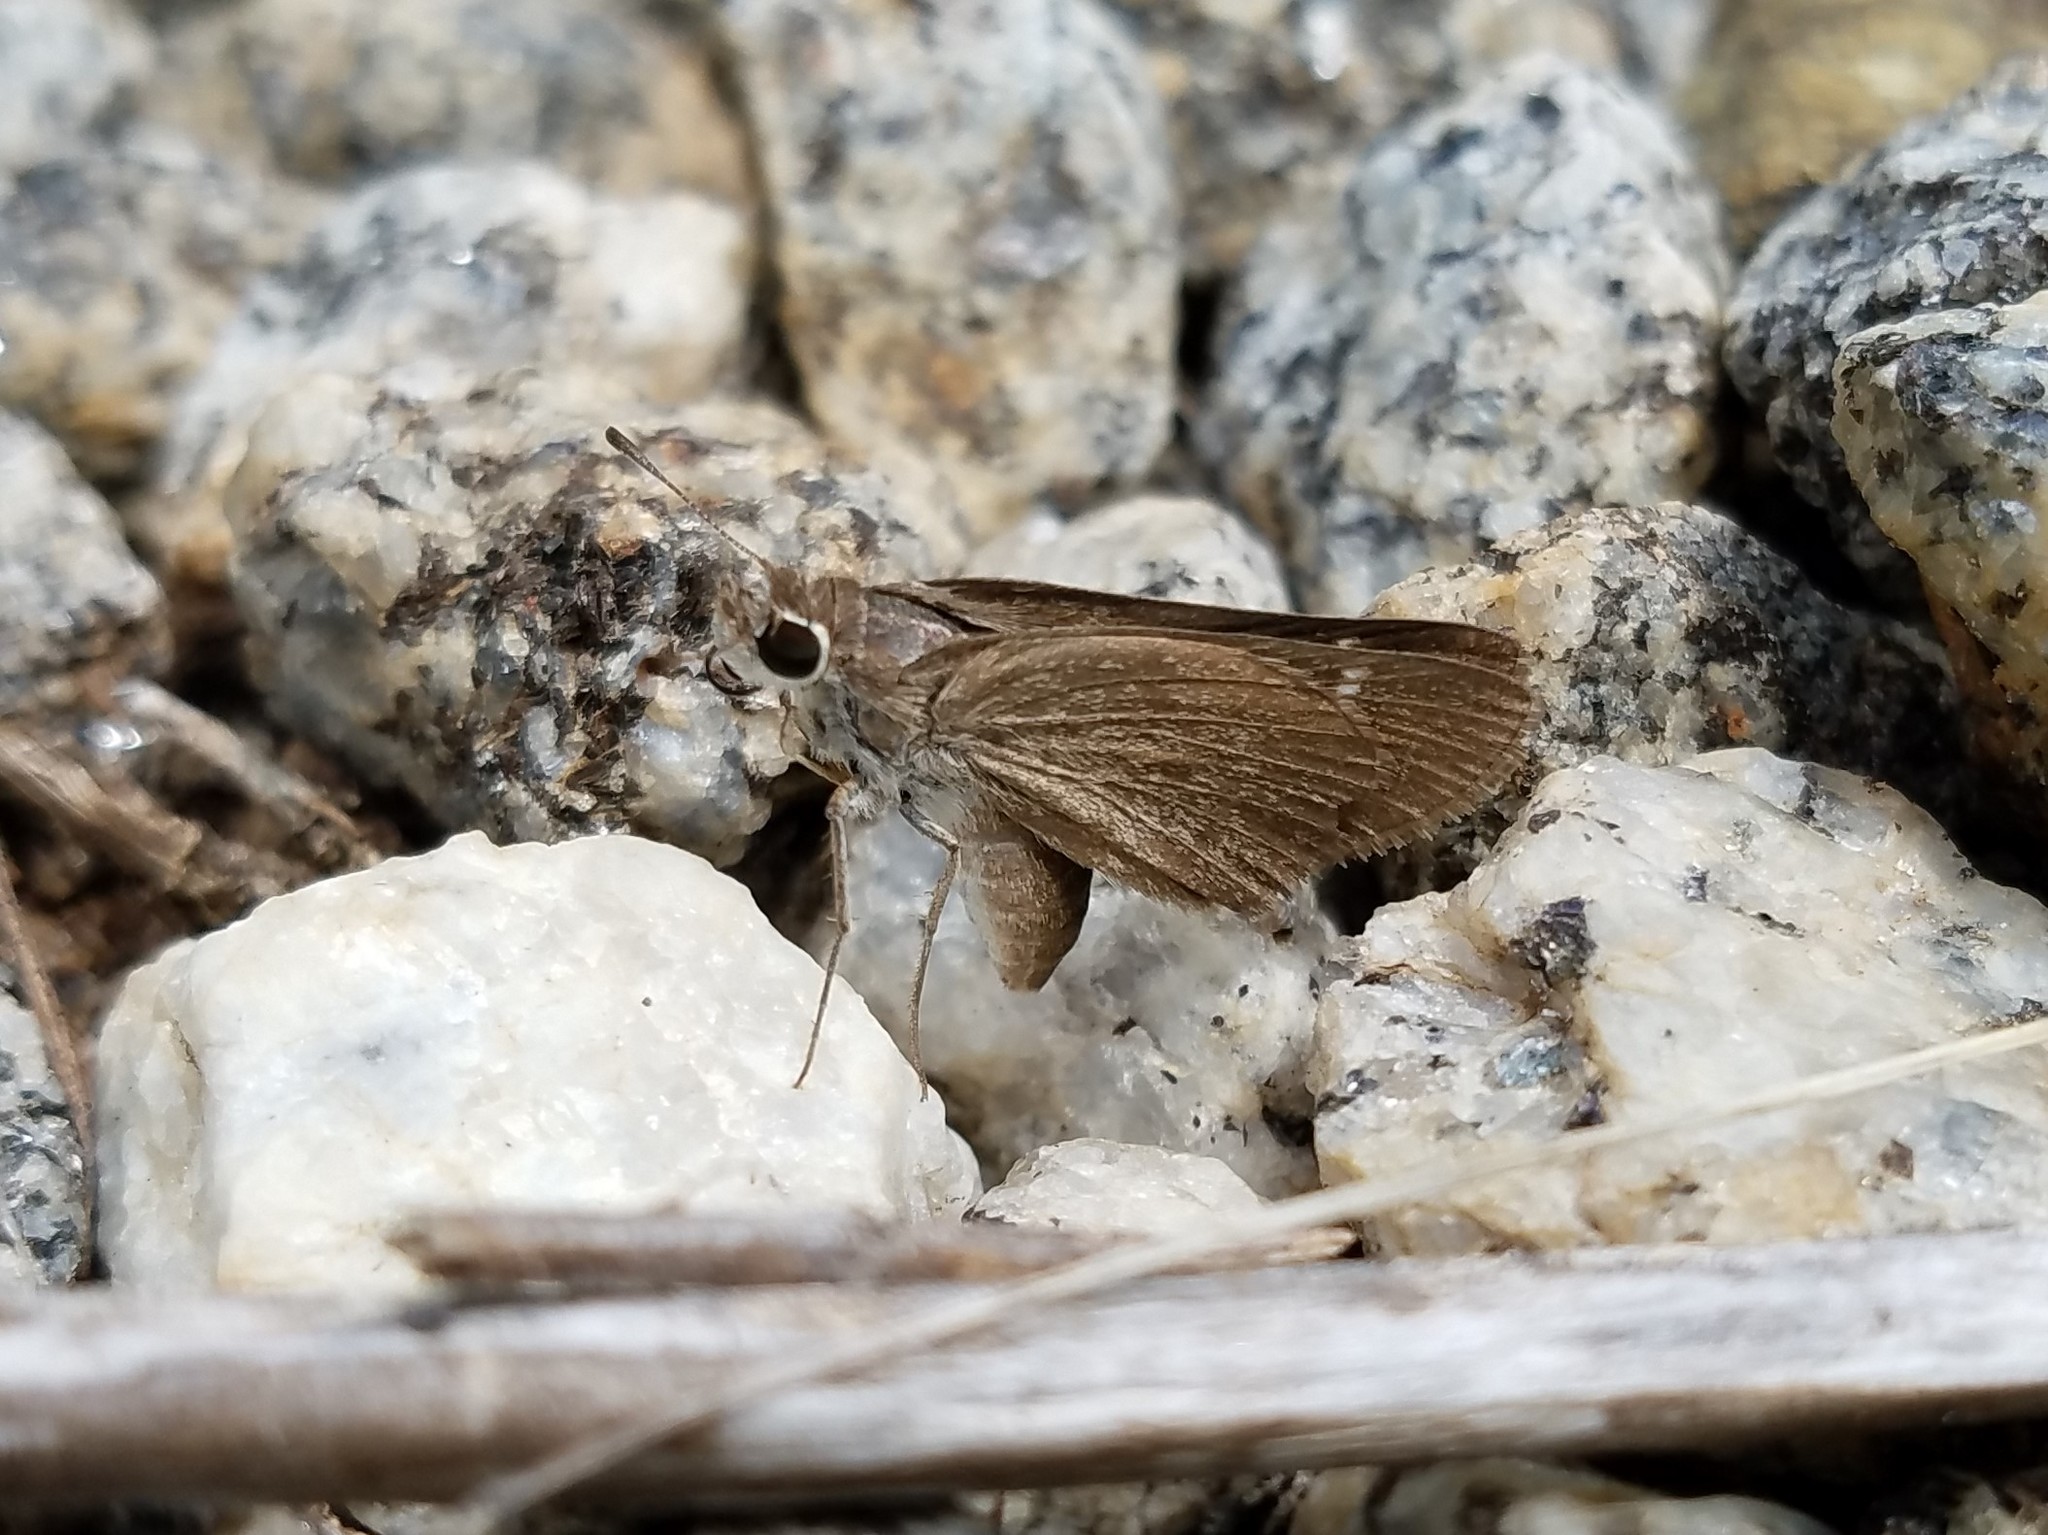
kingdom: Animalia
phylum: Arthropoda
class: Insecta
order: Lepidoptera
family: Hesperiidae
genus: Lerodea
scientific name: Lerodea eufala
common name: Eufala skipper
